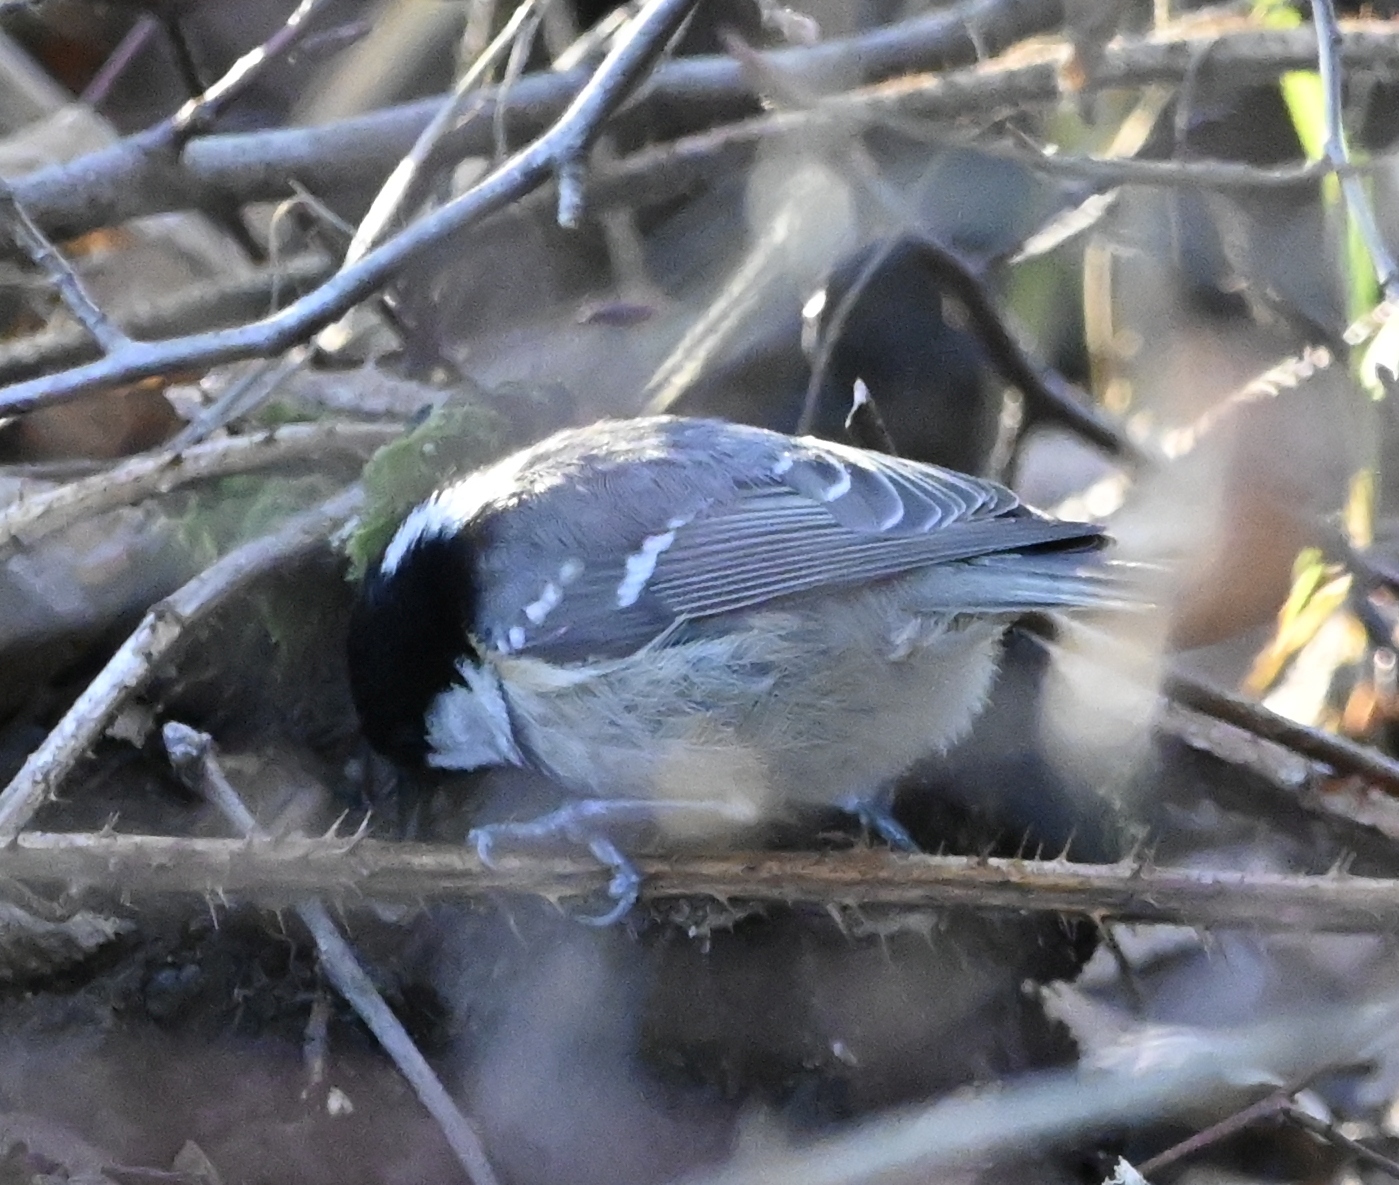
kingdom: Animalia
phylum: Chordata
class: Aves
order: Passeriformes
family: Paridae
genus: Periparus
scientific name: Periparus ater
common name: Coal tit
